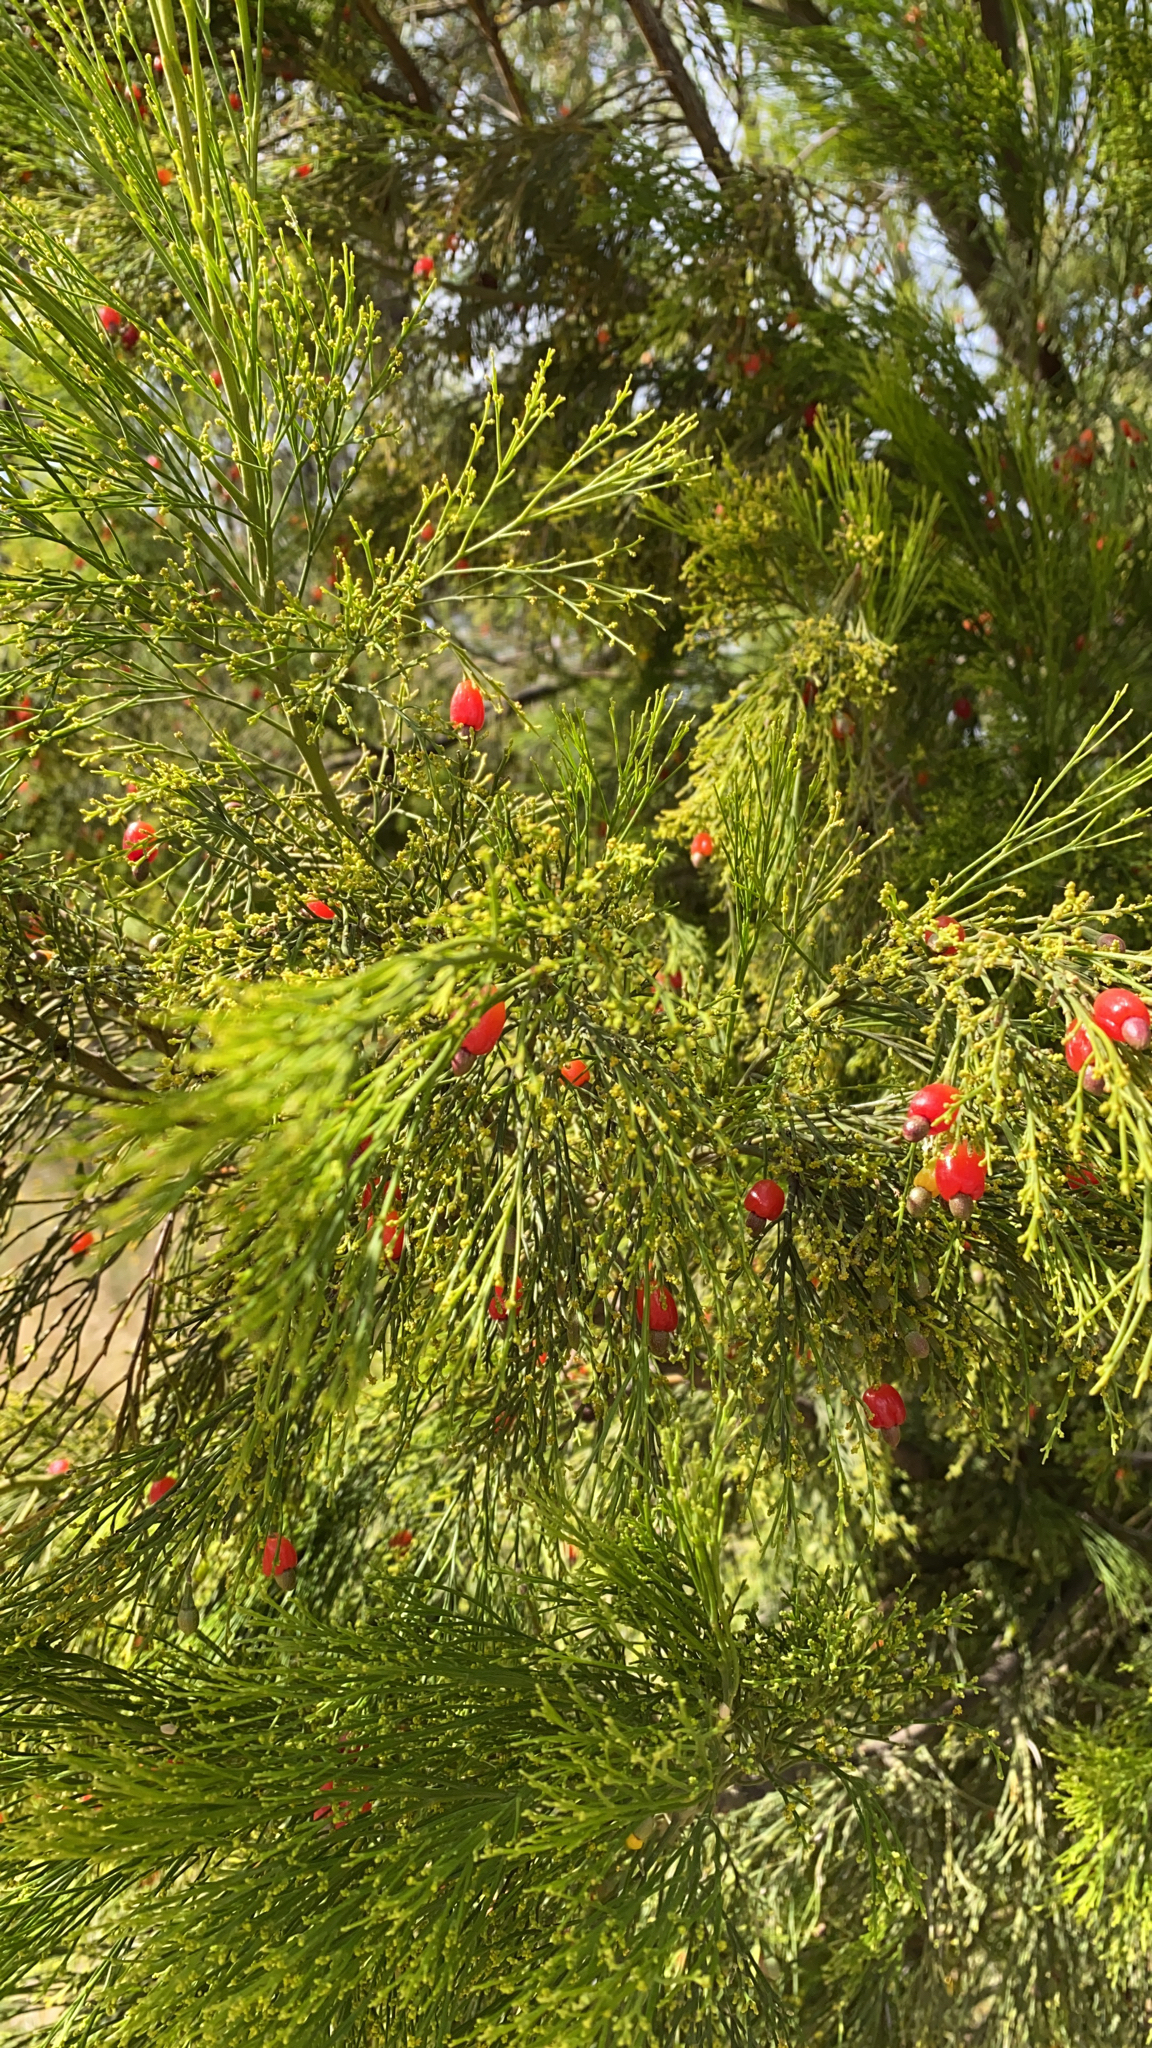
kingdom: Plantae
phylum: Tracheophyta
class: Magnoliopsida
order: Santalales
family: Santalaceae
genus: Exocarpos
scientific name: Exocarpos cupressiformis
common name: Cherry ballart
